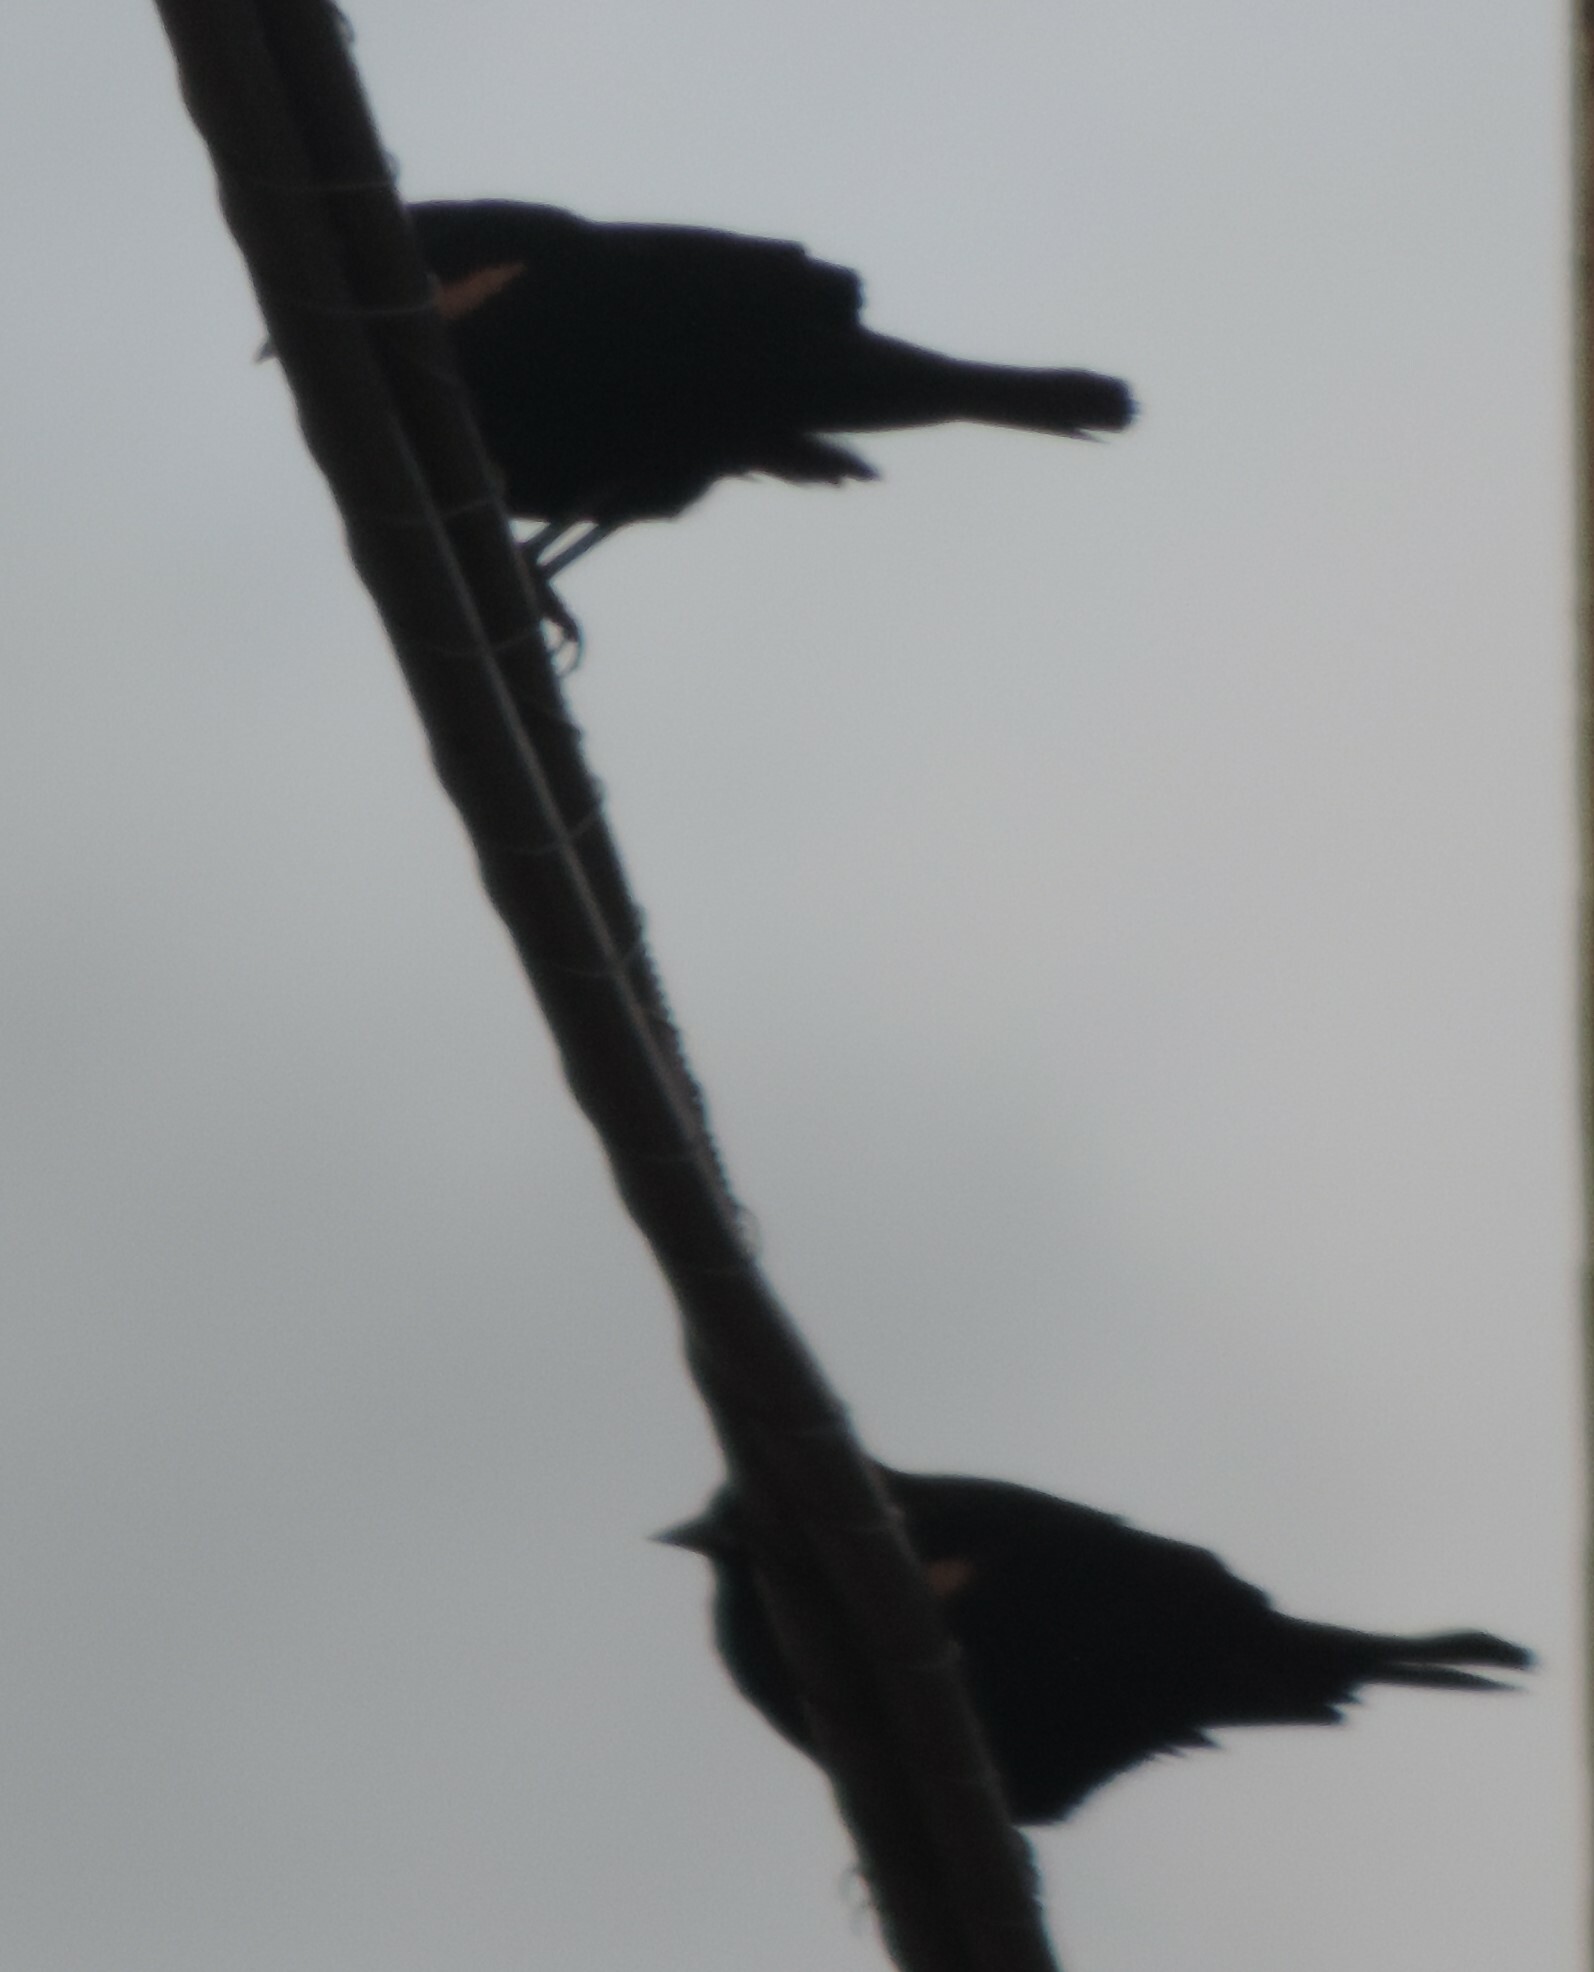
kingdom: Animalia
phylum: Chordata
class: Aves
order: Passeriformes
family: Icteridae
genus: Agelaius
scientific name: Agelaius phoeniceus
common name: Red-winged blackbird
